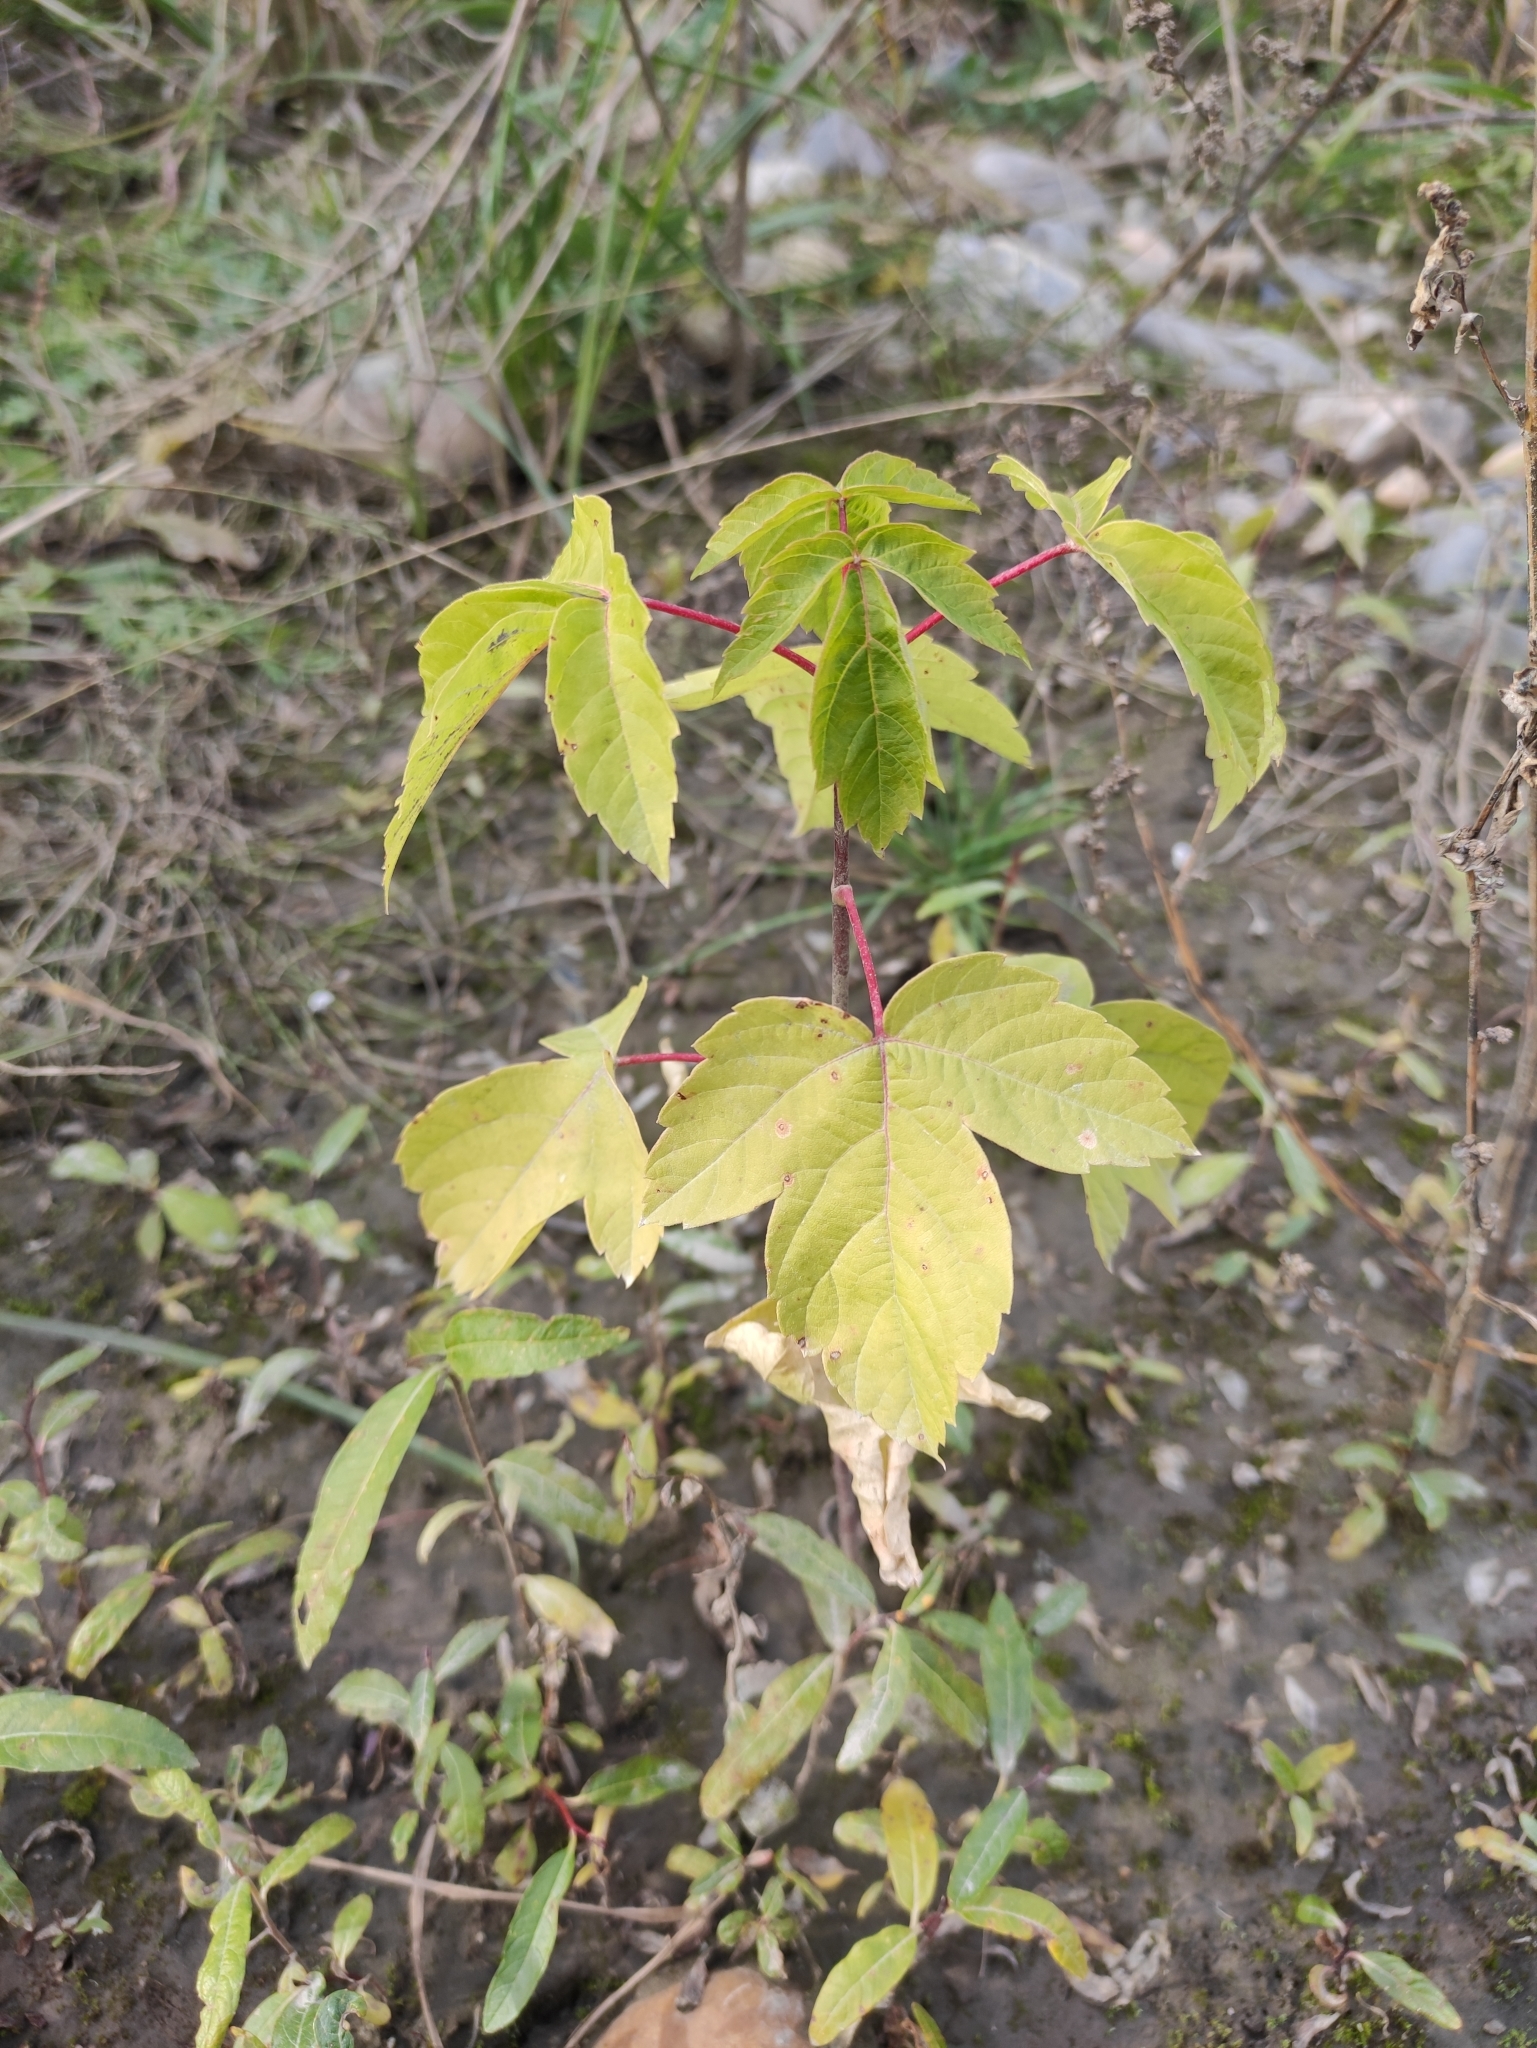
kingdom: Plantae
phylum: Tracheophyta
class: Magnoliopsida
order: Sapindales
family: Sapindaceae
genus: Acer
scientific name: Acer negundo
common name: Ashleaf maple
